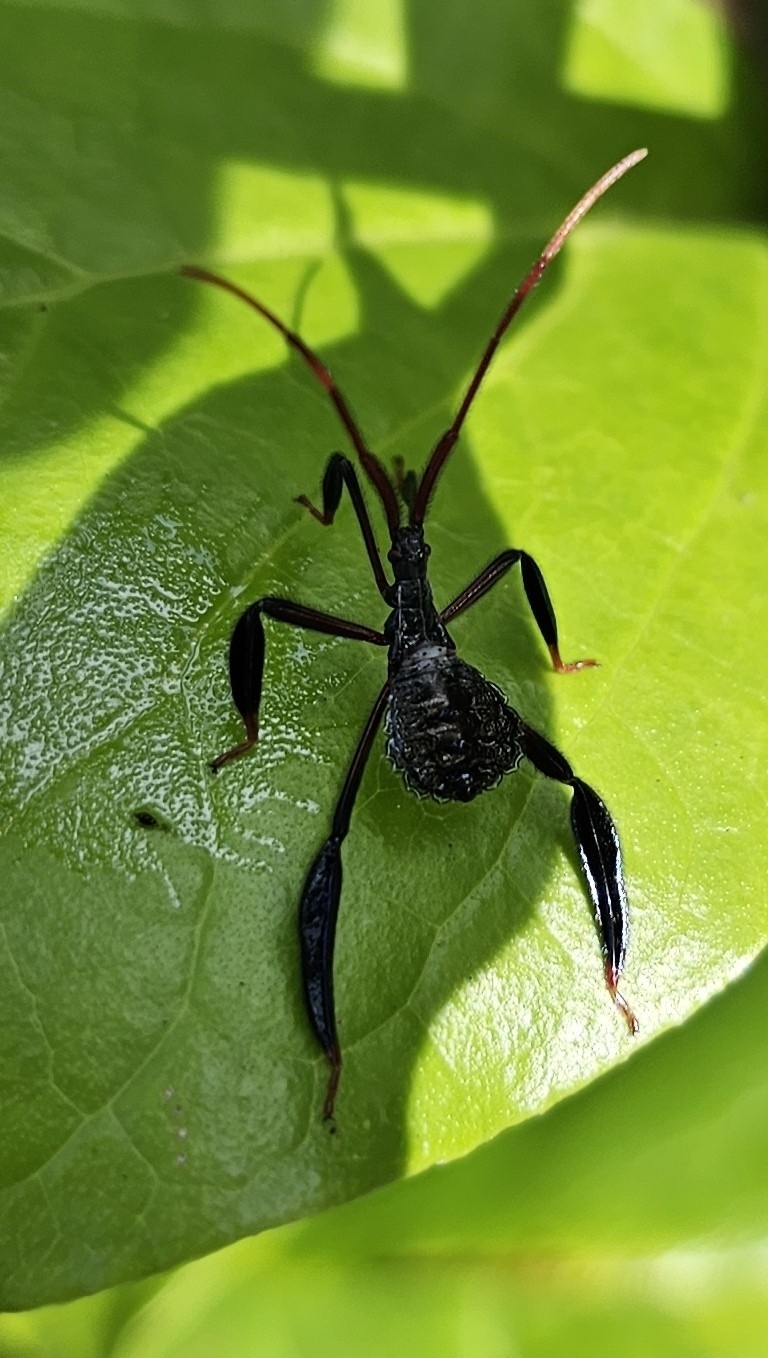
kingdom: Animalia
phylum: Arthropoda
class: Insecta
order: Hemiptera
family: Coreidae
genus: Acanthocephala
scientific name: Acanthocephala declivis
